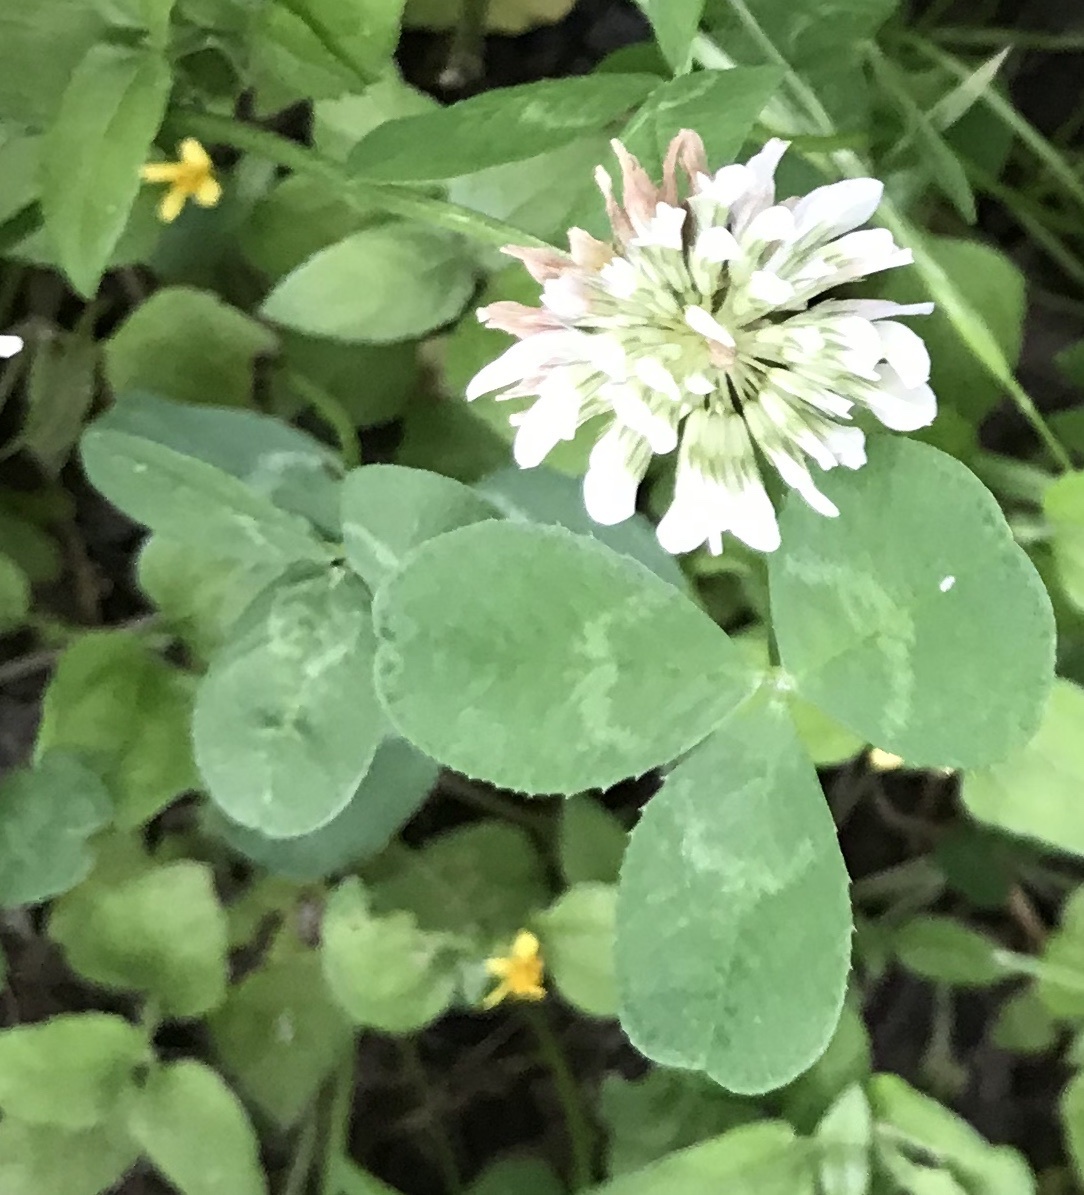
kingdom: Plantae
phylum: Tracheophyta
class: Magnoliopsida
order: Fabales
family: Fabaceae
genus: Trifolium
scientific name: Trifolium repens
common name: White clover
